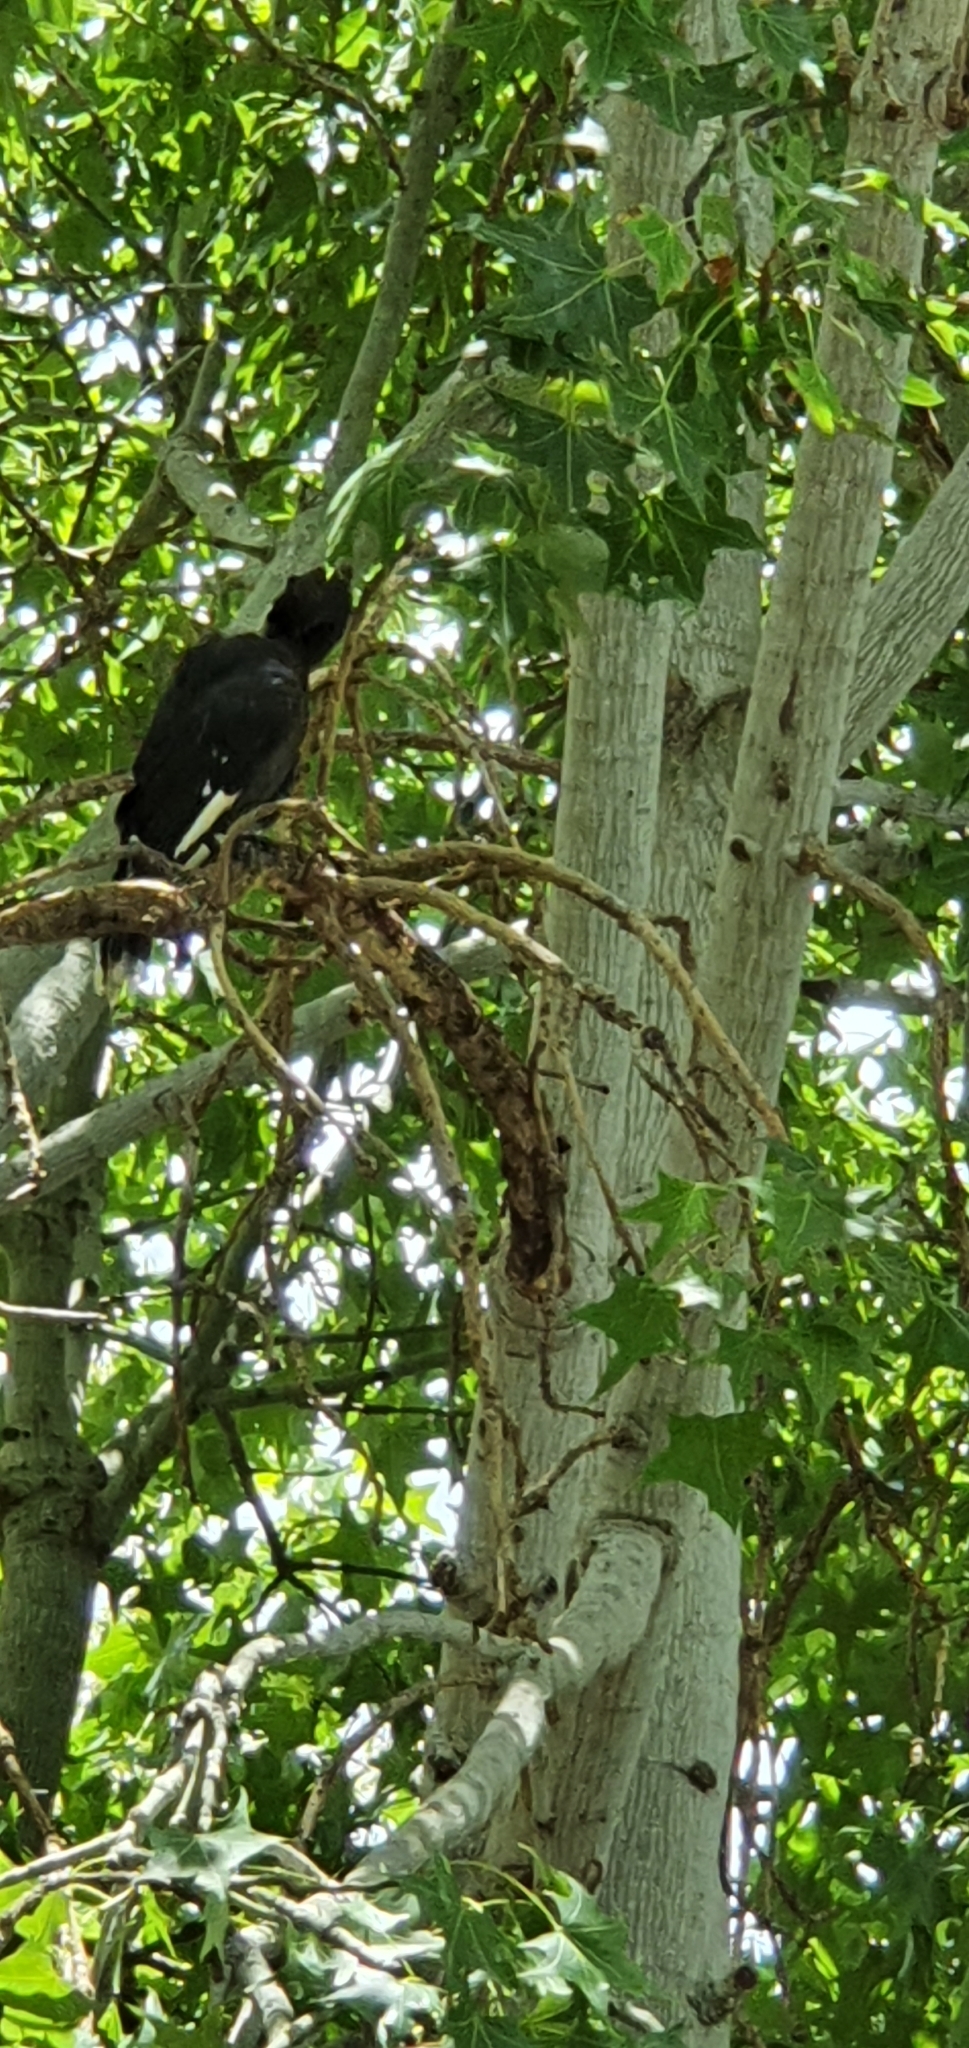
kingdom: Animalia
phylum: Chordata
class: Aves
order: Passeriformes
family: Cracticidae
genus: Strepera
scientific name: Strepera graculina
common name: Pied currawong
